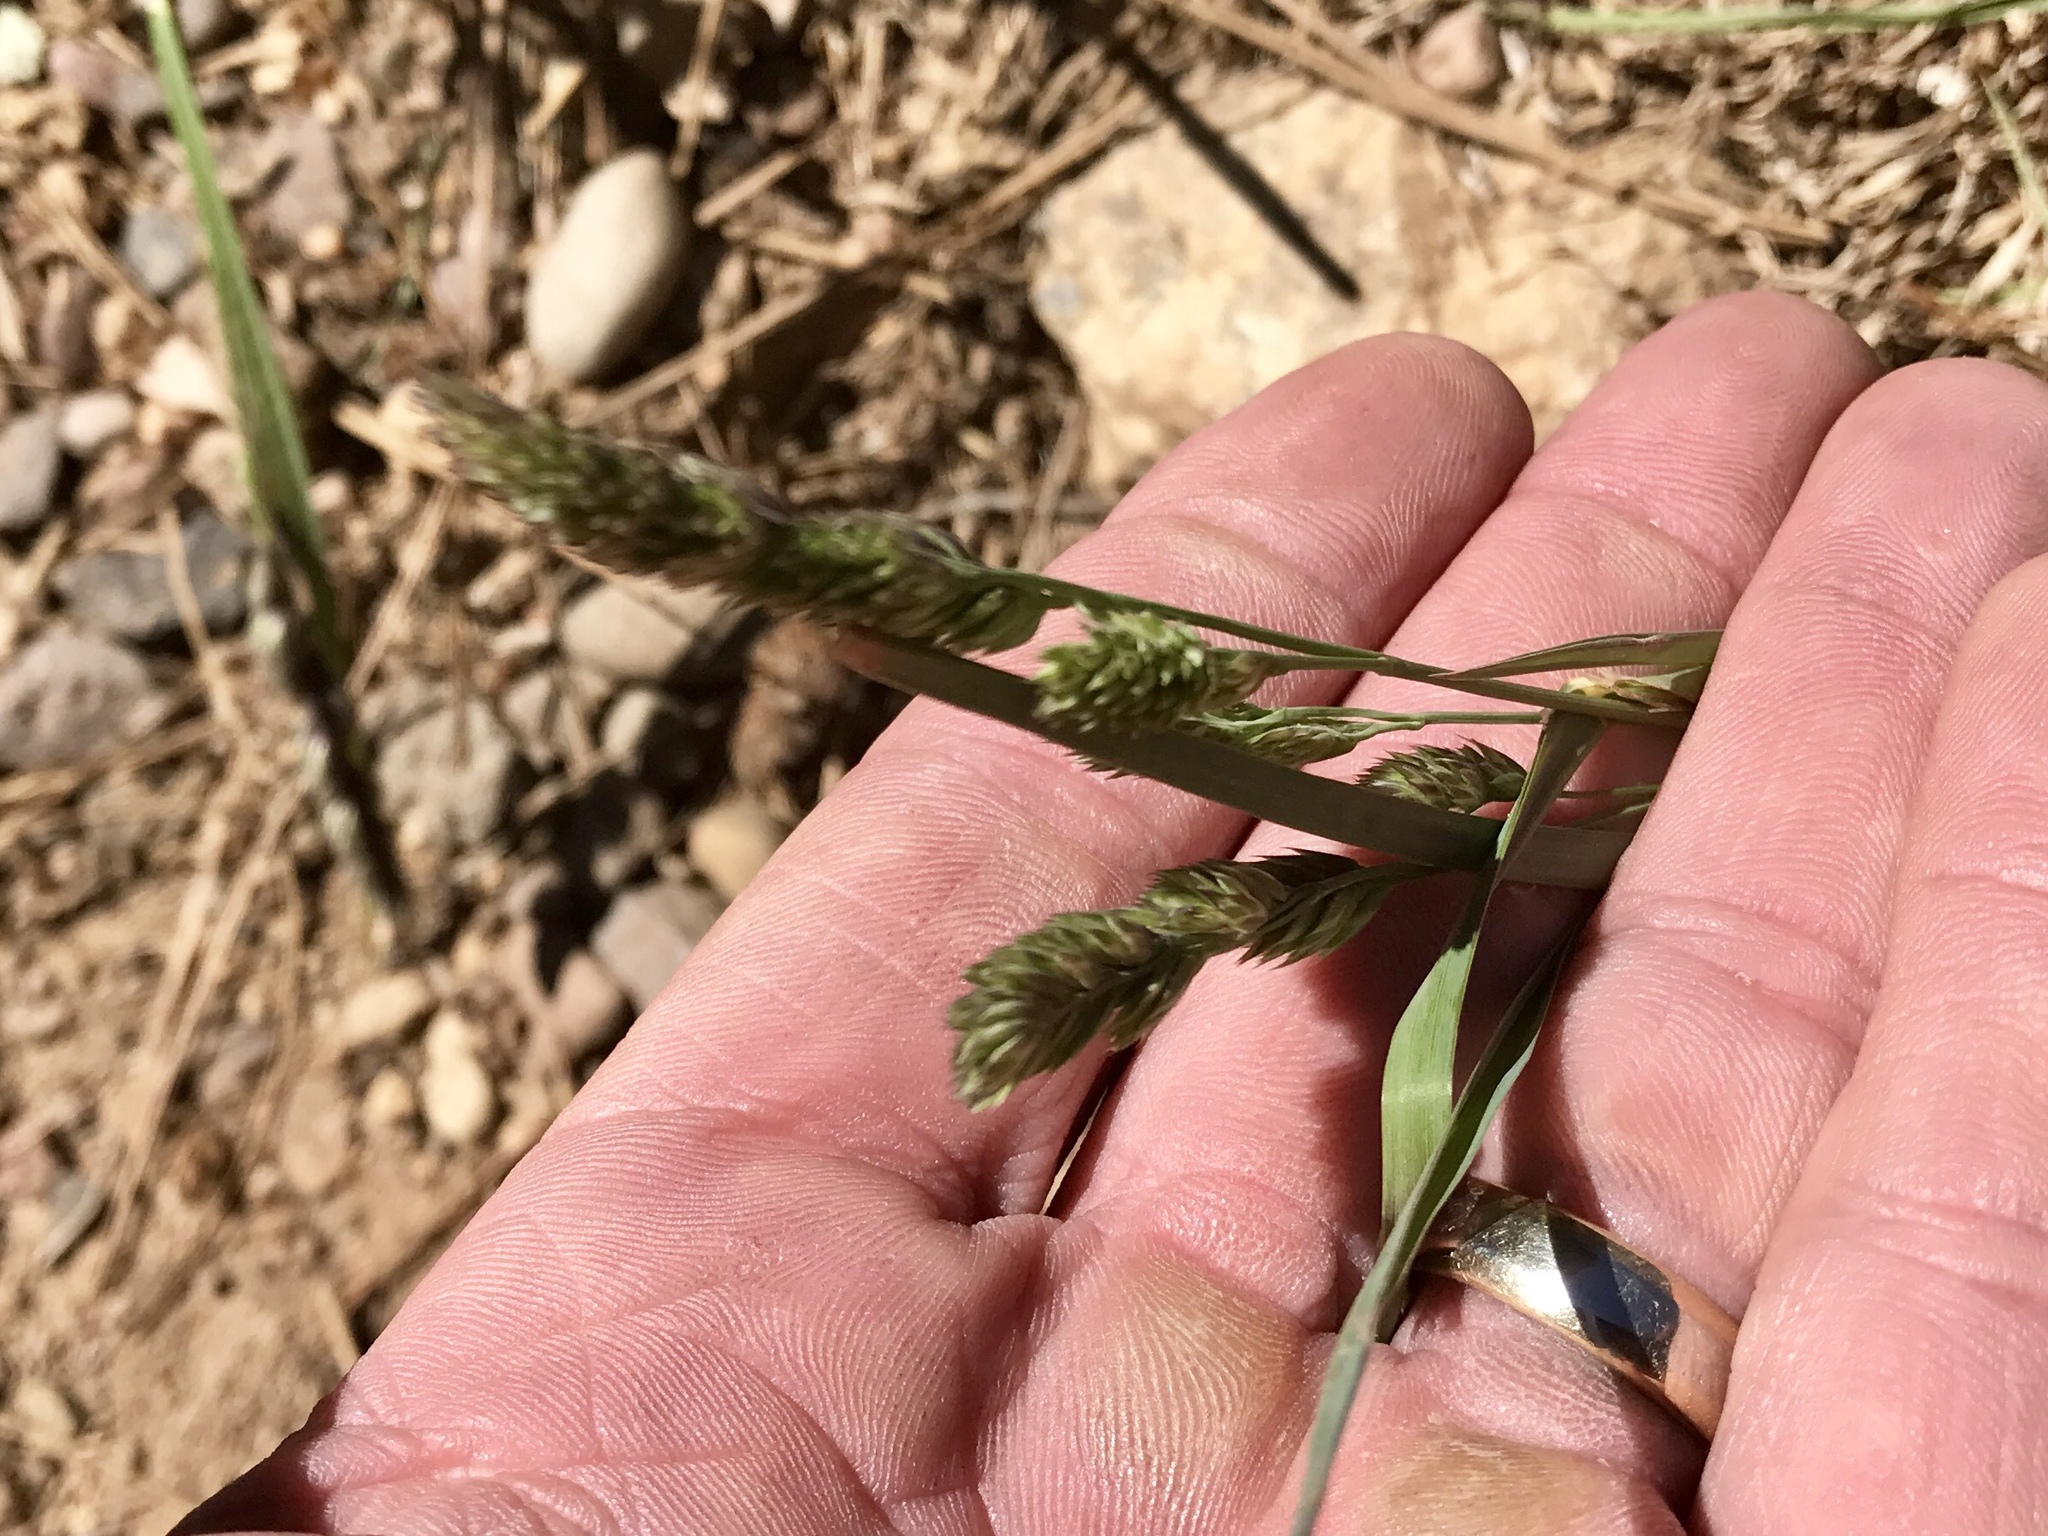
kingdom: Plantae
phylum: Tracheophyta
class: Liliopsida
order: Poales
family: Poaceae
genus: Dactylis
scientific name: Dactylis glomerata
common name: Orchardgrass
